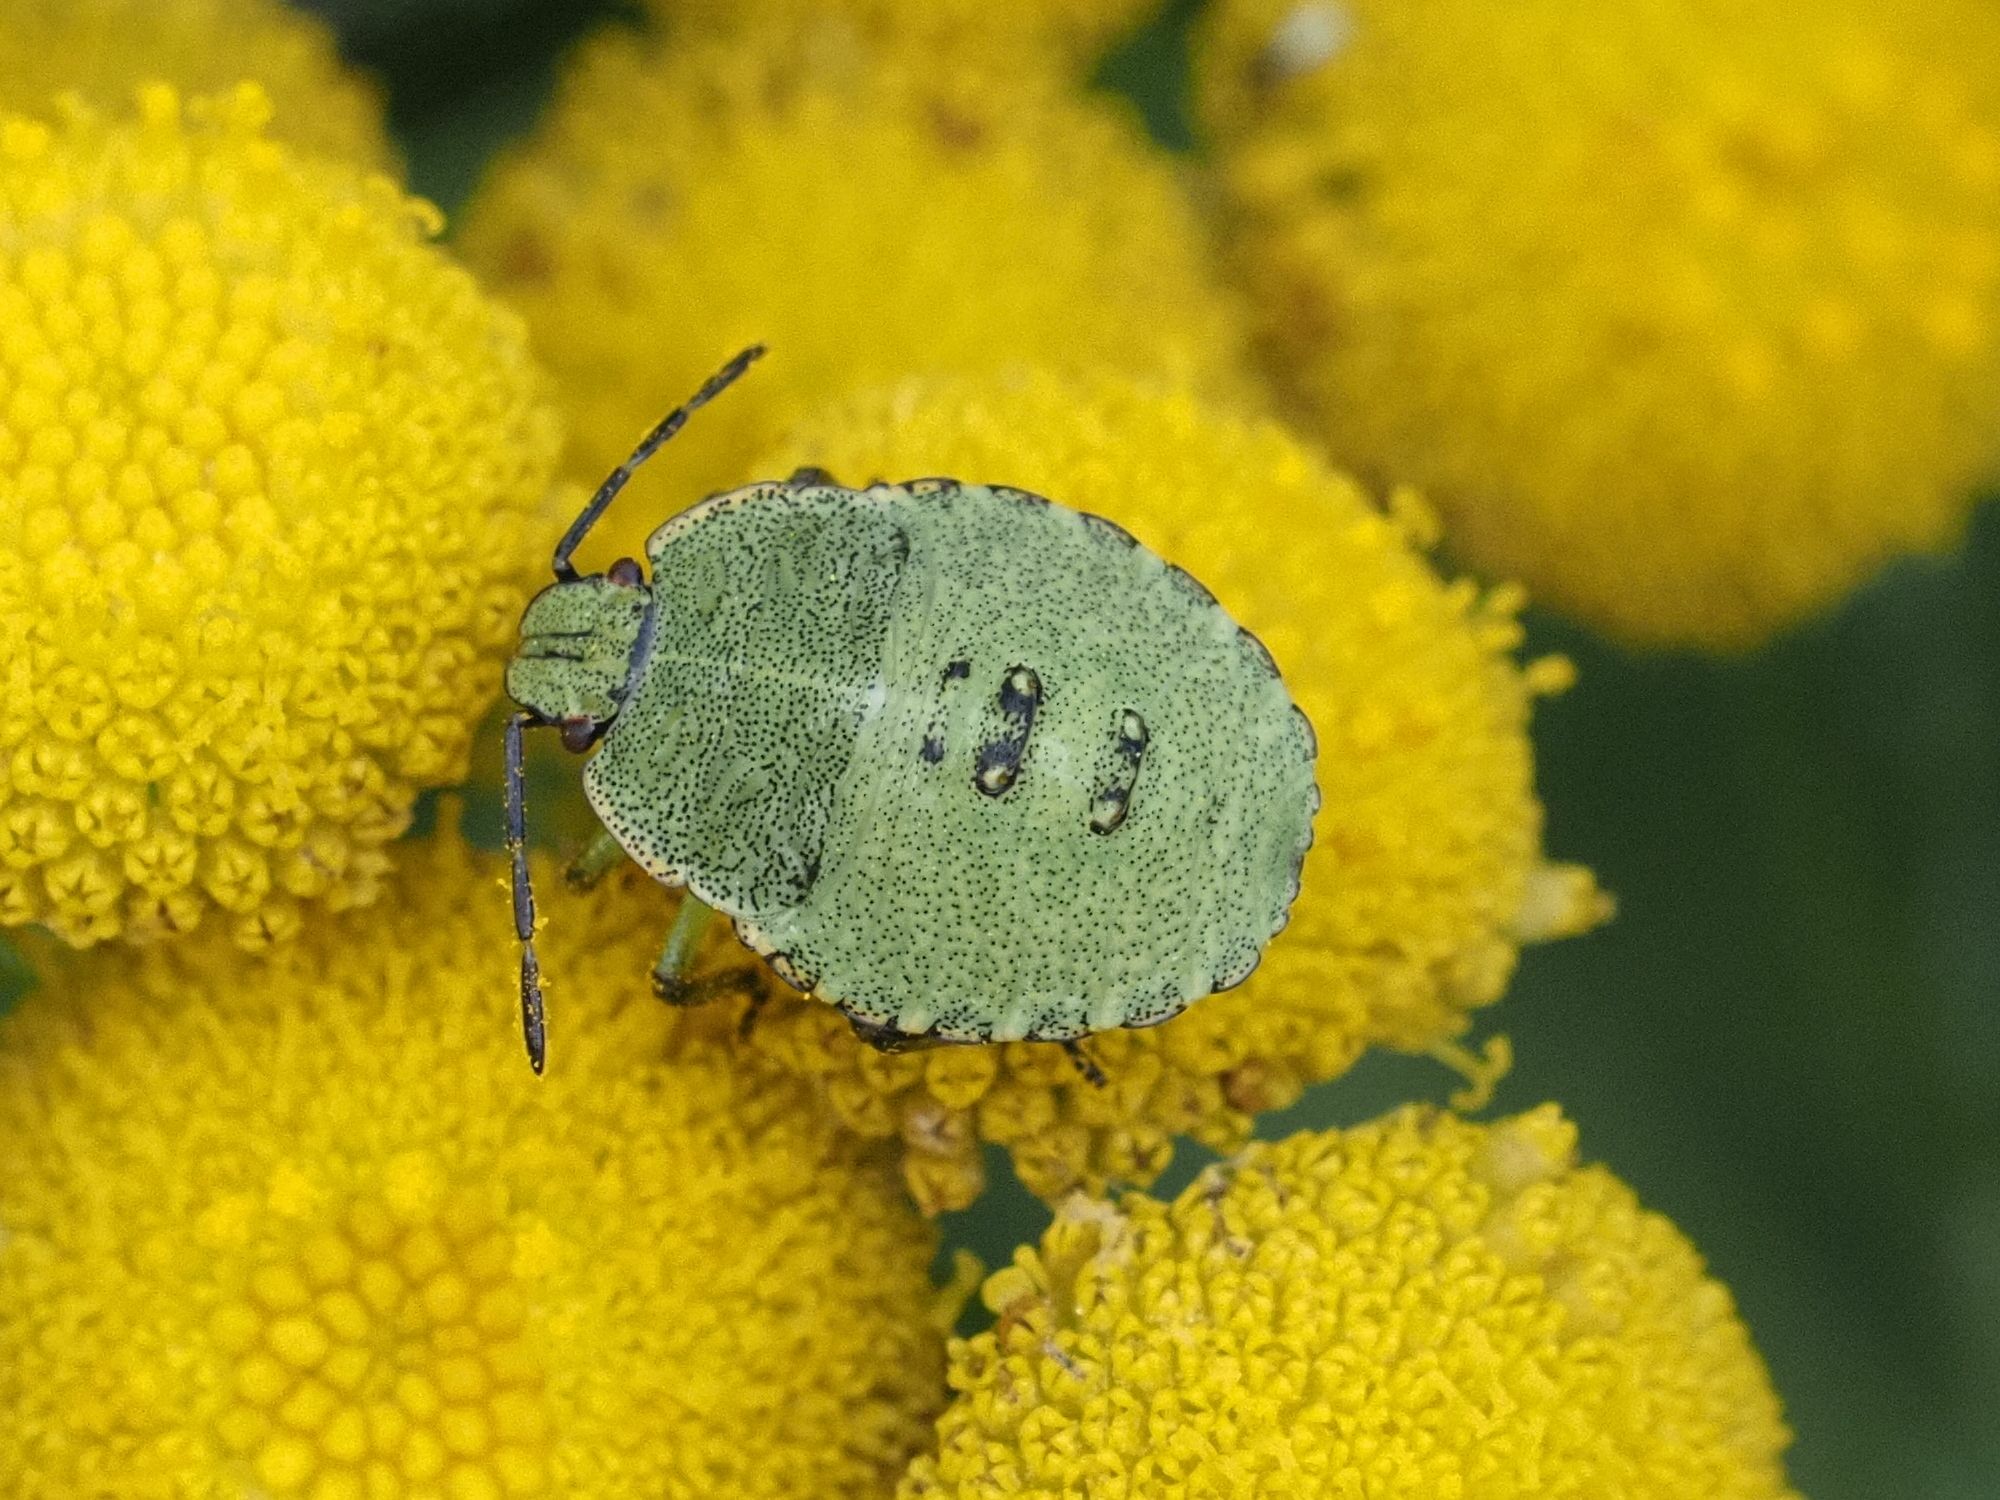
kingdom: Animalia
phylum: Arthropoda
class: Insecta
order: Hemiptera
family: Pentatomidae
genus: Palomena
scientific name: Palomena prasina
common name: Green shieldbug
